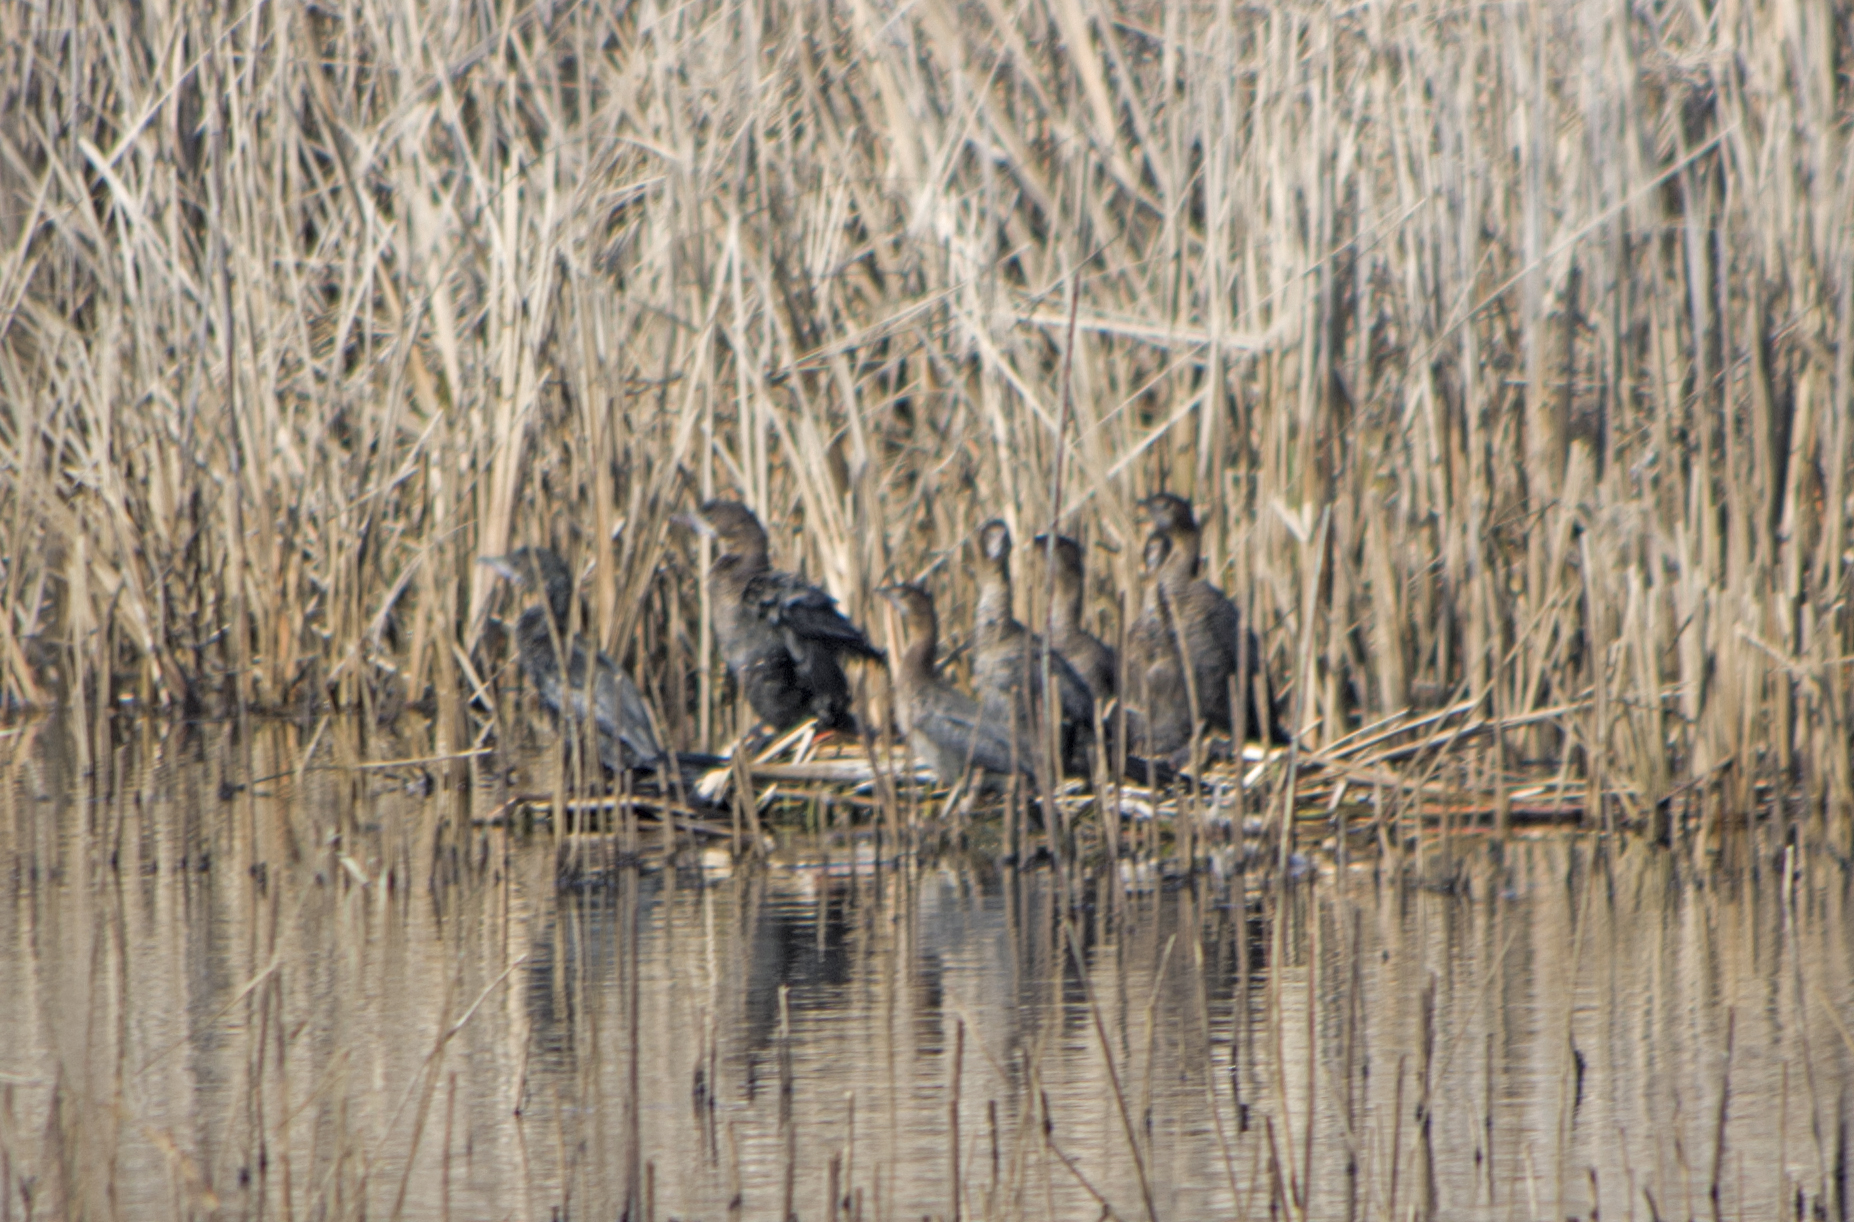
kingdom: Animalia
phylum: Chordata
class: Aves
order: Suliformes
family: Phalacrocoracidae
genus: Microcarbo
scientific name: Microcarbo pygmaeus
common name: Pygmy cormorant
